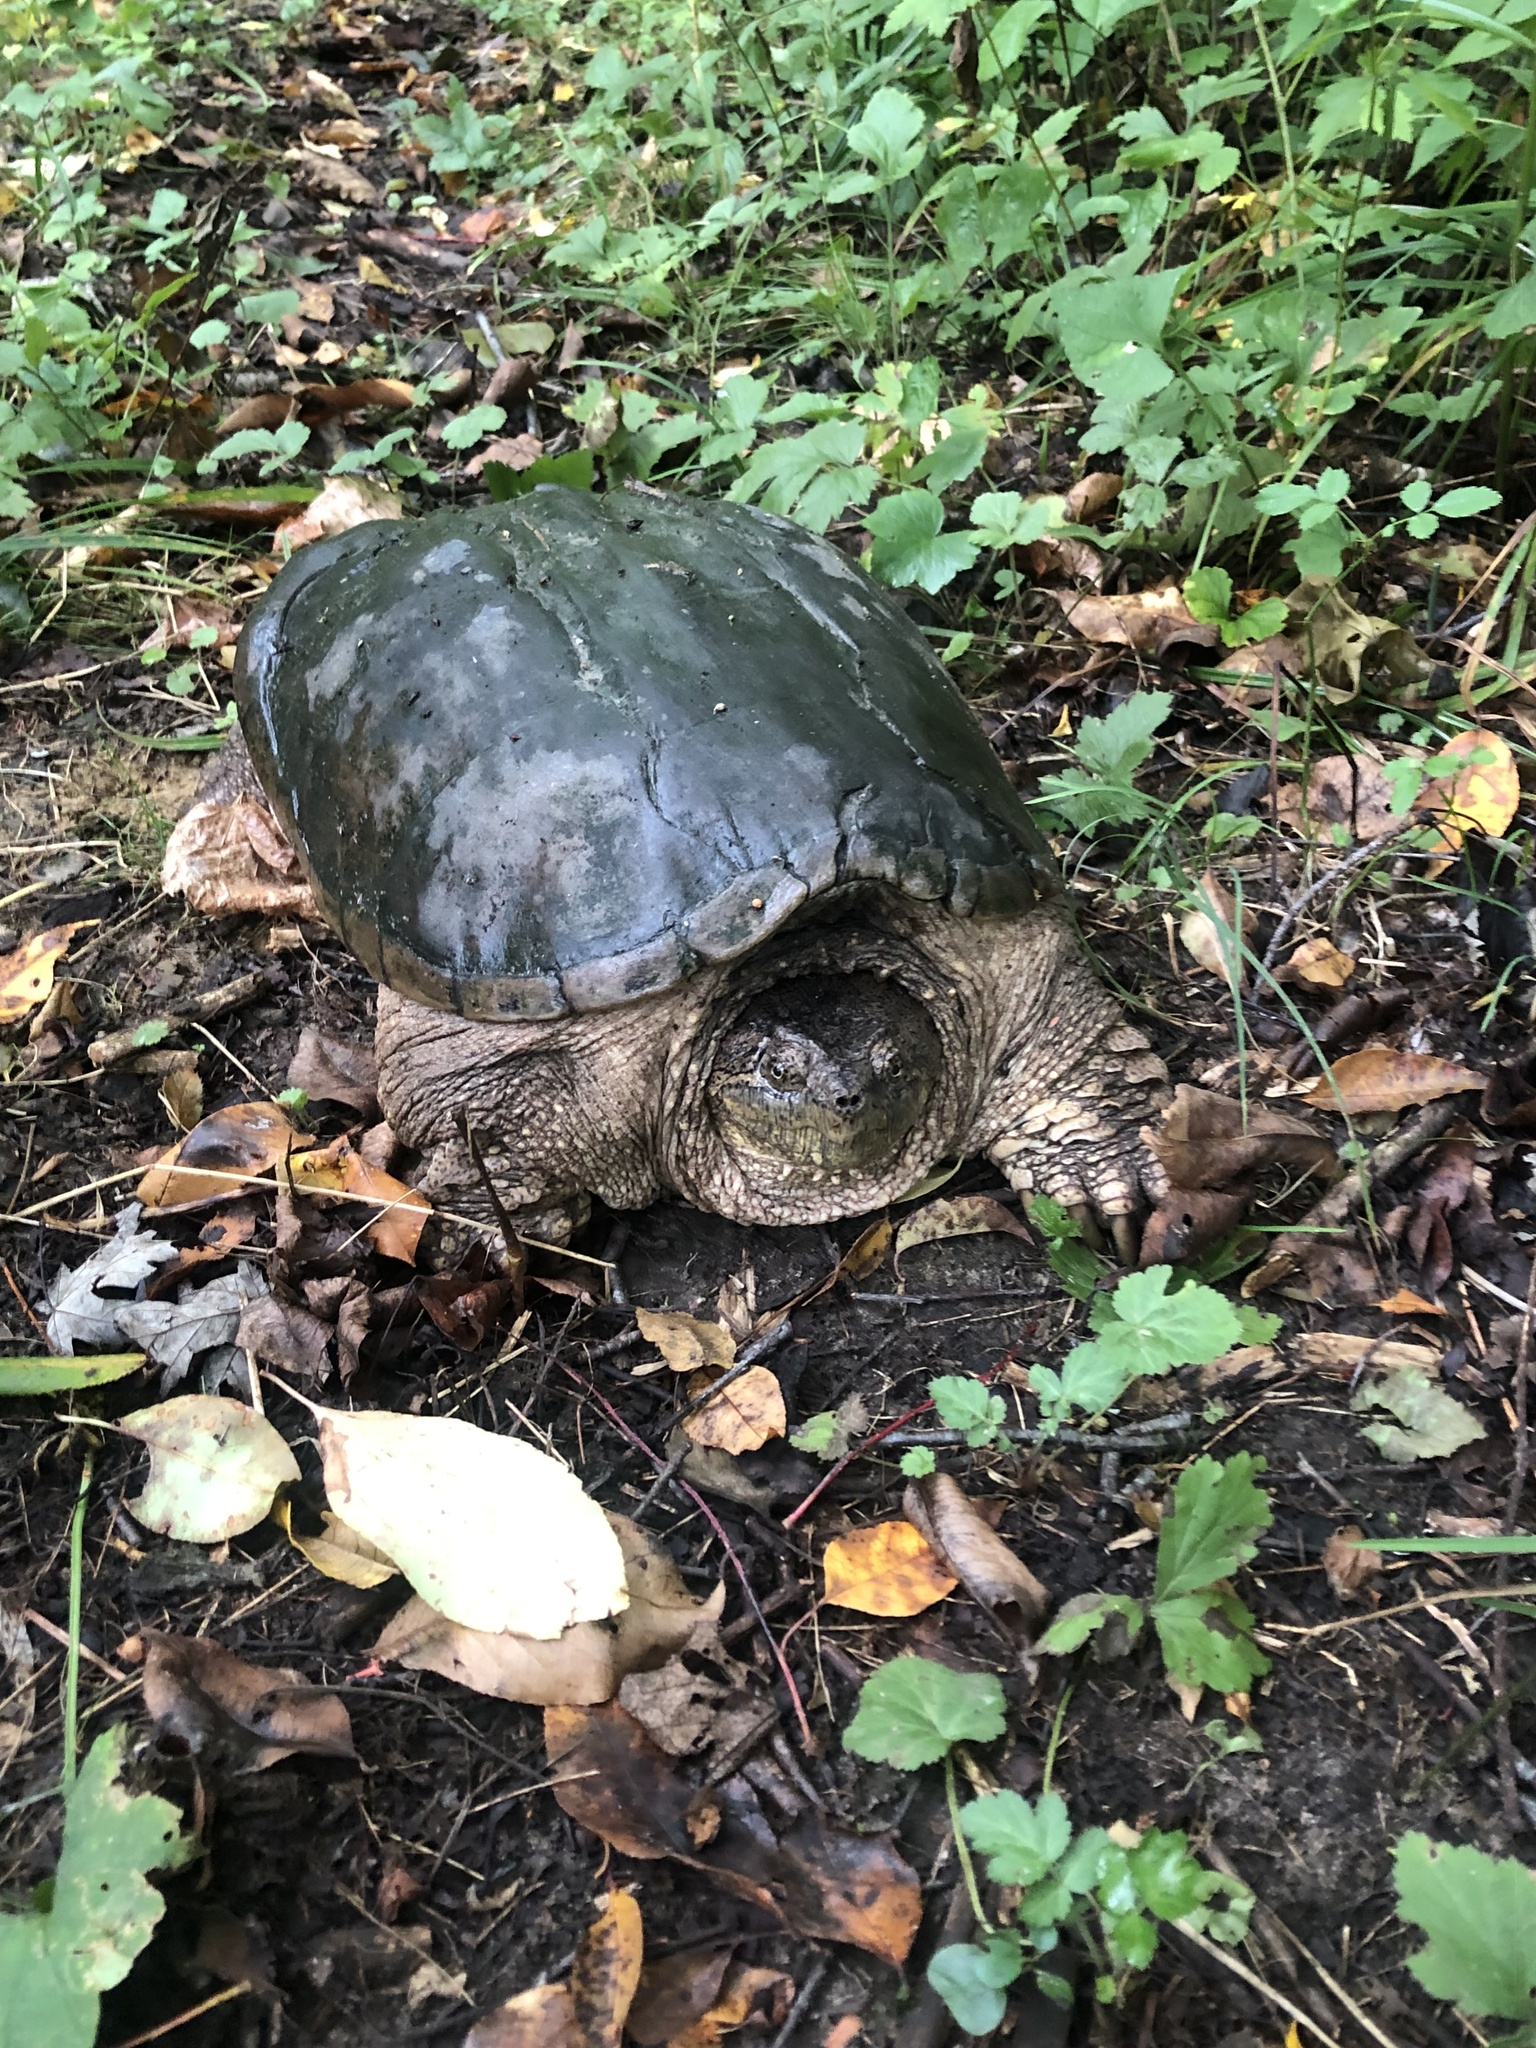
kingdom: Animalia
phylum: Chordata
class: Testudines
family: Chelydridae
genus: Chelydra
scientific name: Chelydra serpentina
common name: Common snapping turtle
